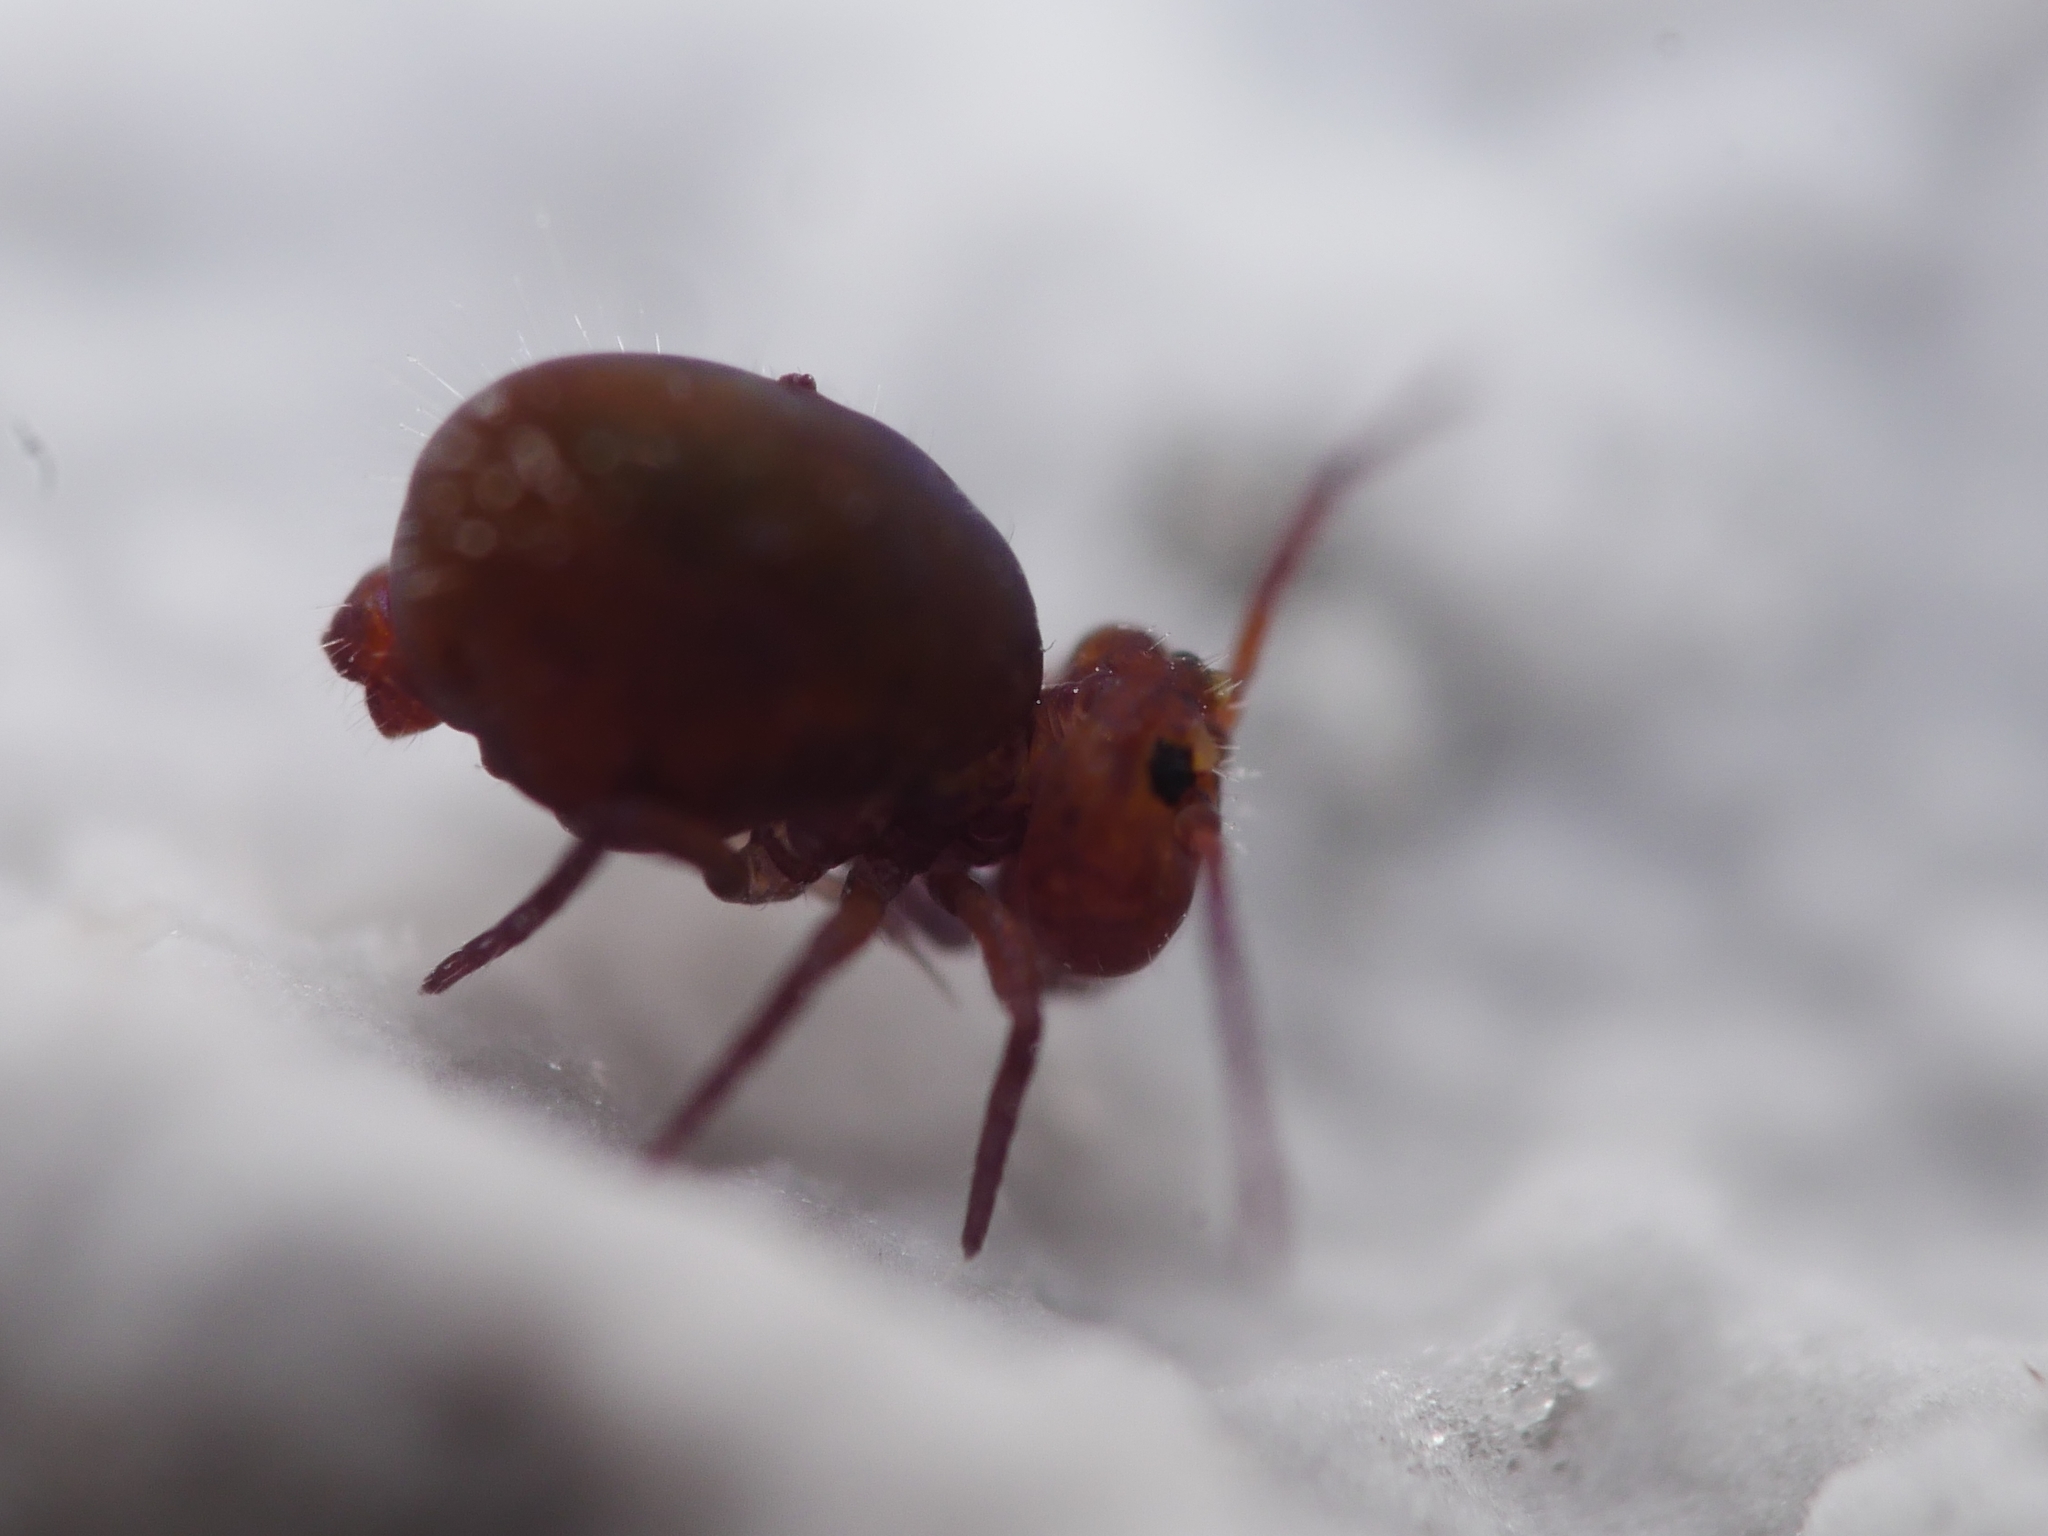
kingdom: Animalia
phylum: Arthropoda
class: Collembola
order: Symphypleona
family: Dicyrtomidae
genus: Dicyrtoma
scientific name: Dicyrtoma fusca
